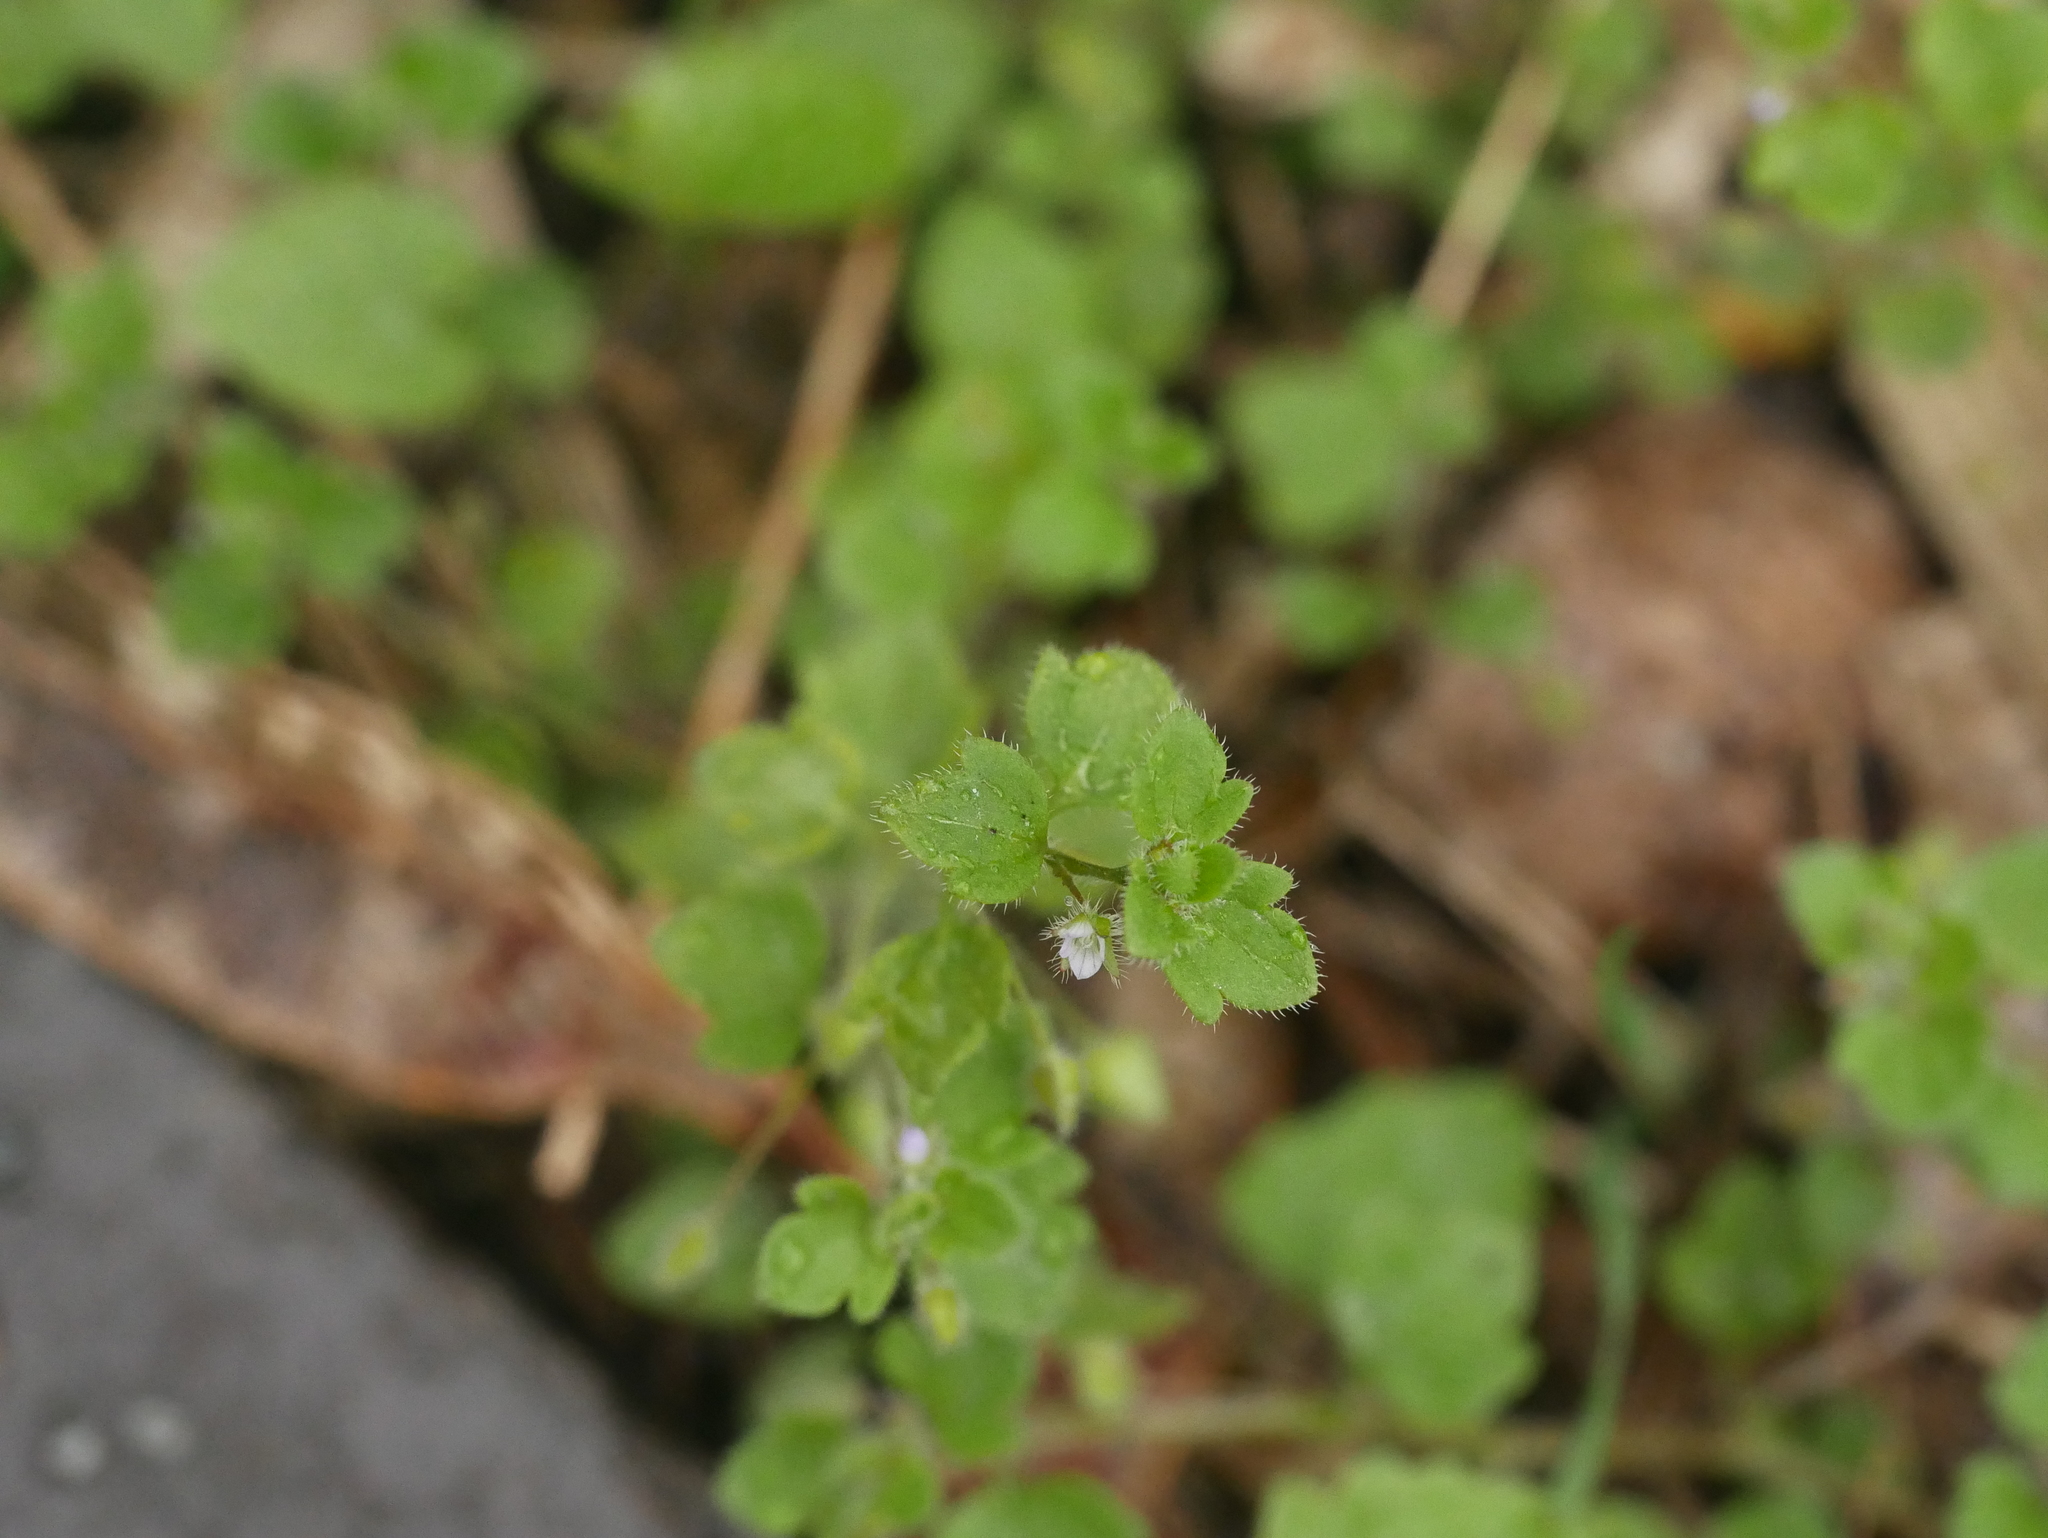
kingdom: Plantae
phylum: Tracheophyta
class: Magnoliopsida
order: Lamiales
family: Plantaginaceae
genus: Veronica
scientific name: Veronica sublobata
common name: False ivy-leaved speedwell
